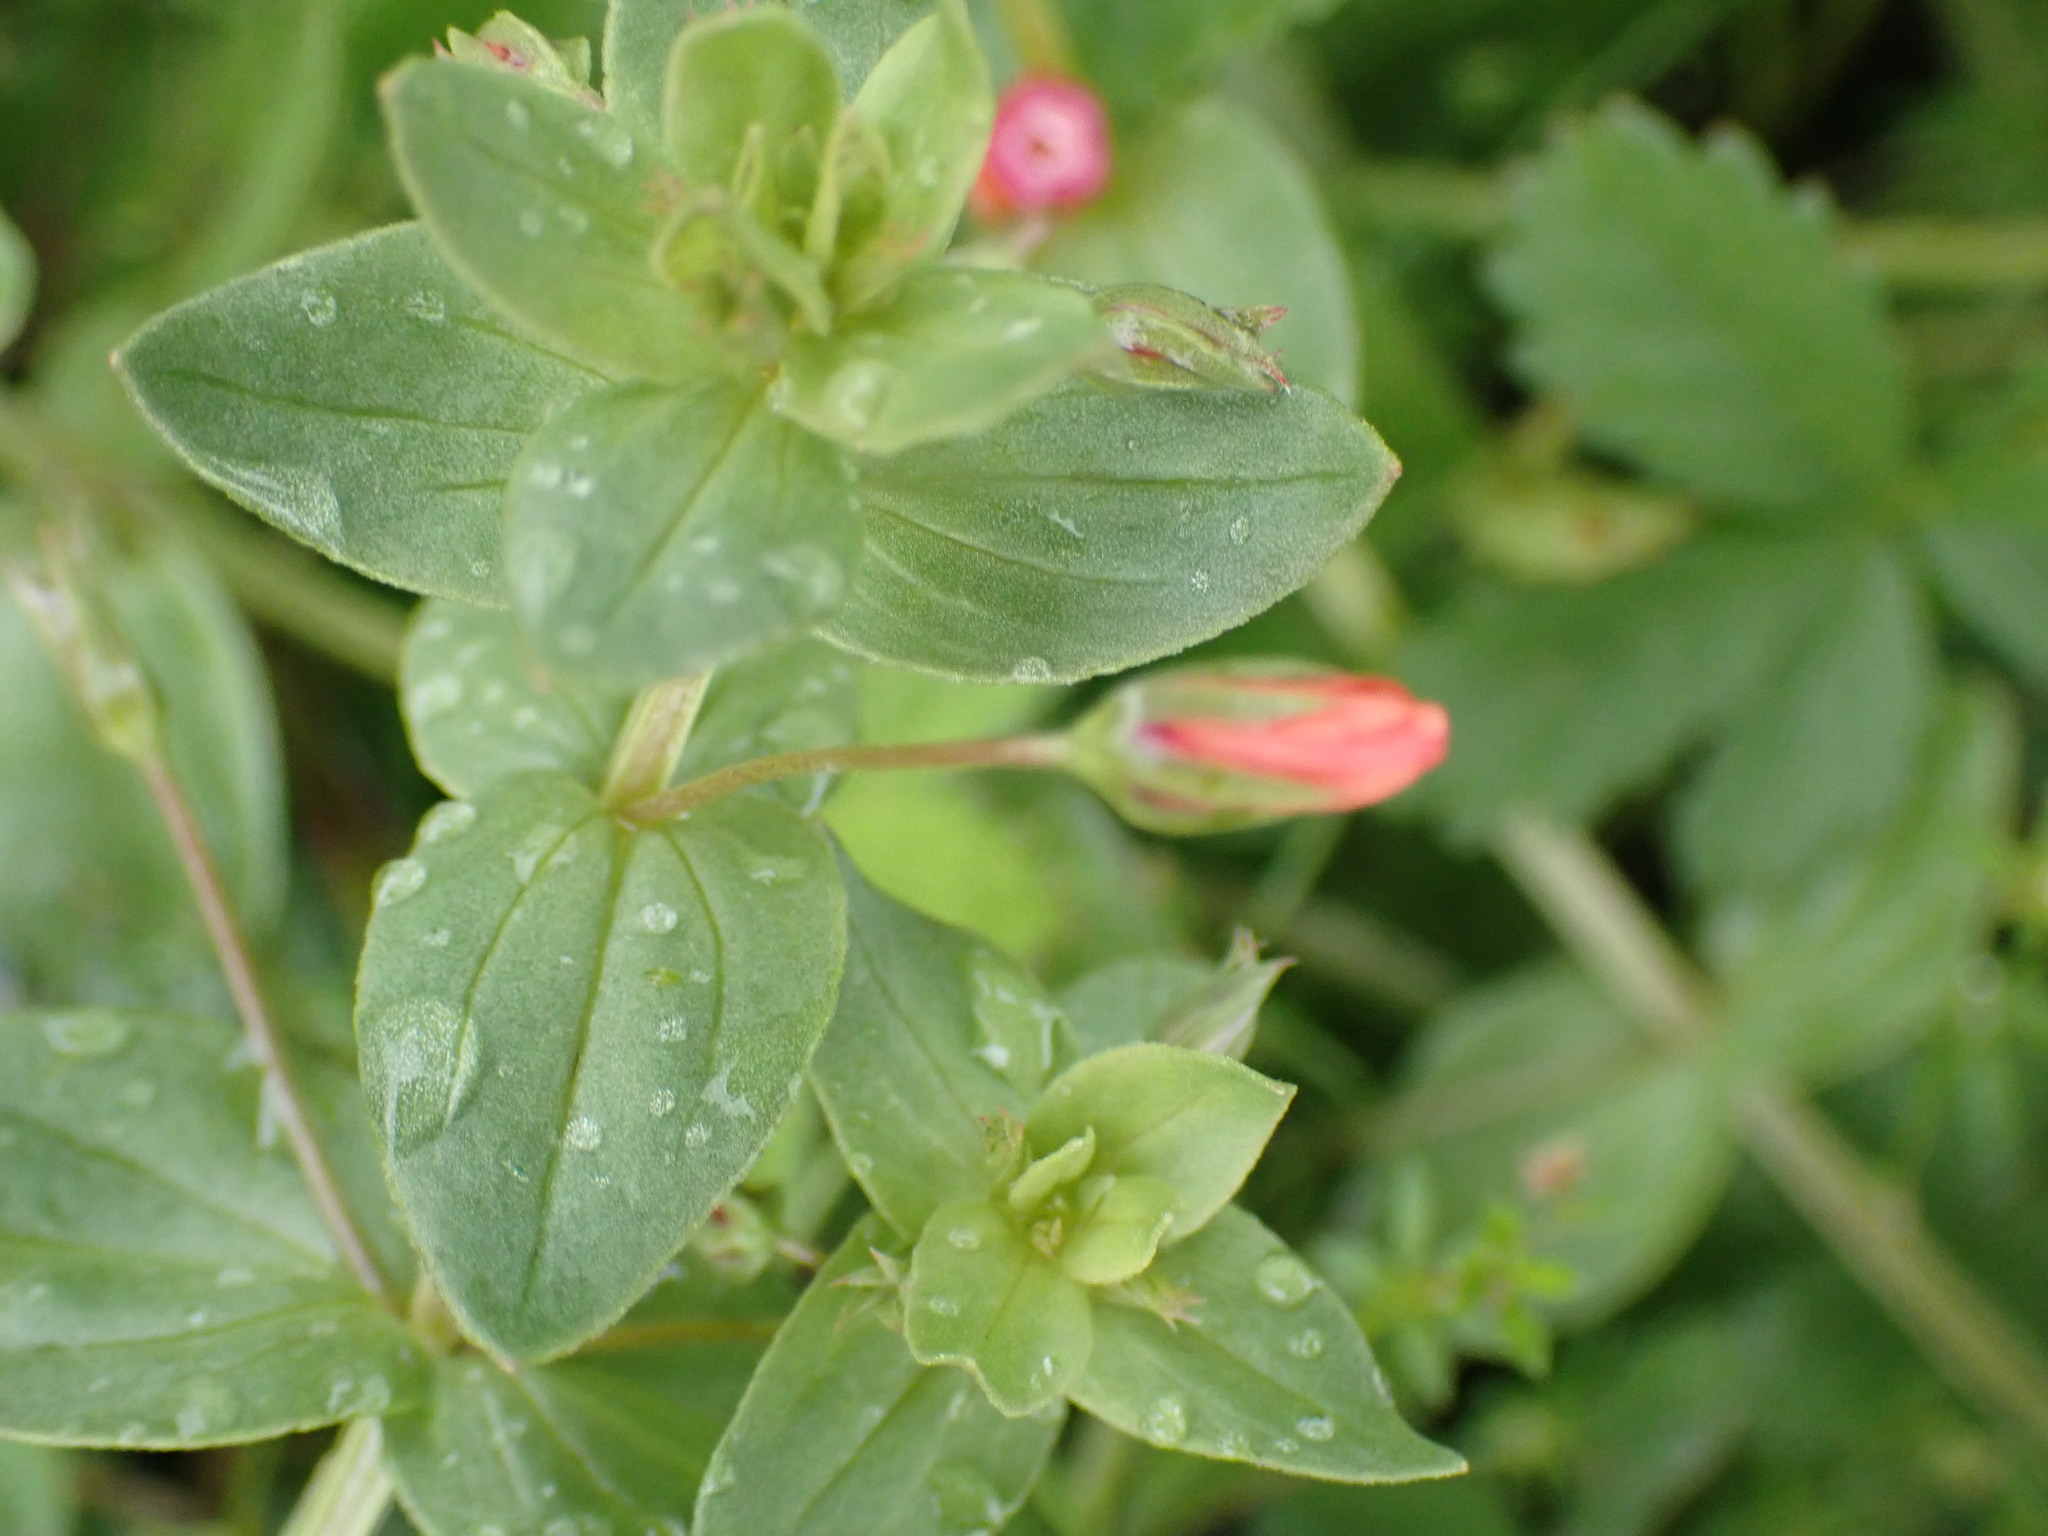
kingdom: Plantae
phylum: Tracheophyta
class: Magnoliopsida
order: Ericales
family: Primulaceae
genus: Lysimachia
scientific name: Lysimachia arvensis
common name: Scarlet pimpernel
